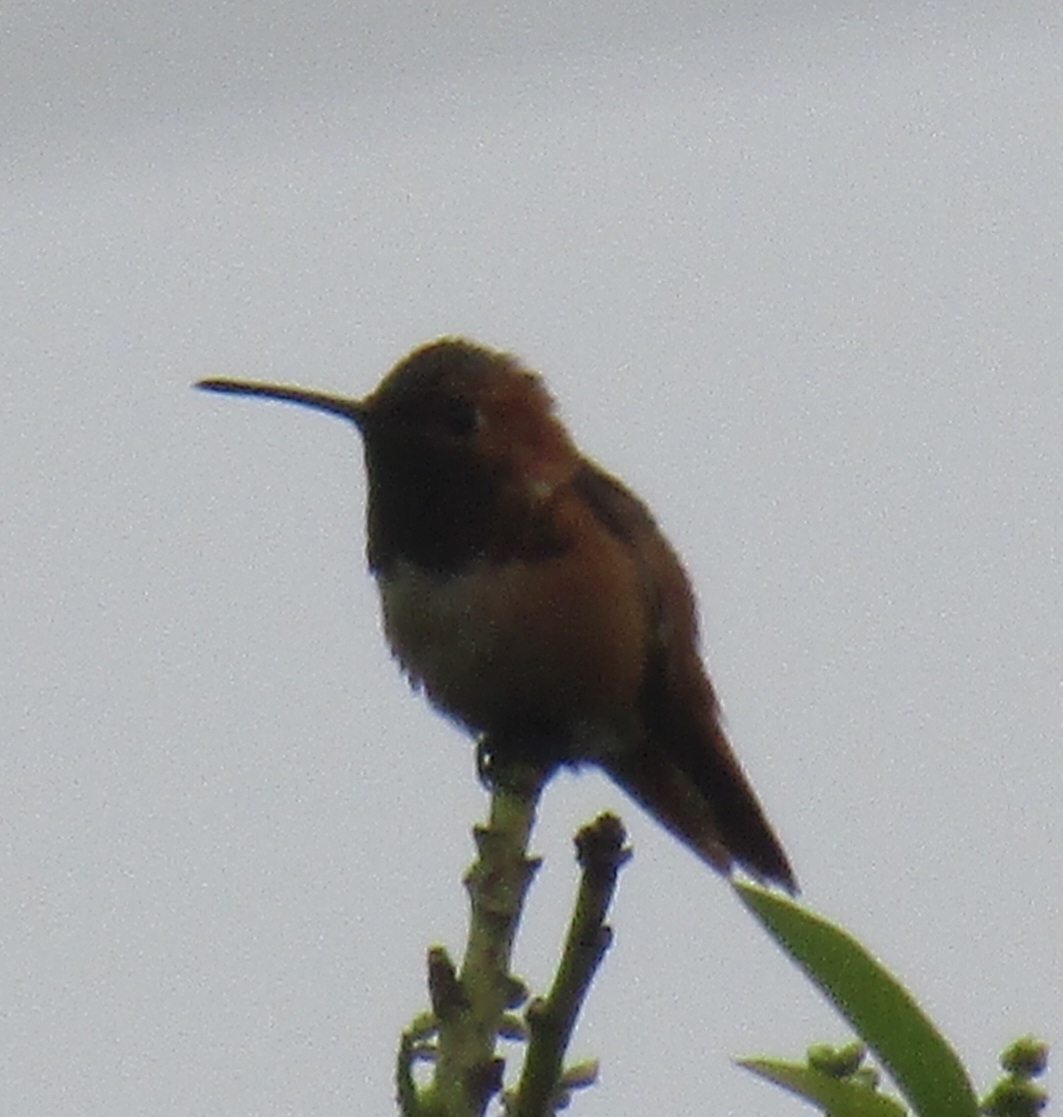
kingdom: Animalia
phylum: Chordata
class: Aves
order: Apodiformes
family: Trochilidae
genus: Selasphorus
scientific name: Selasphorus
